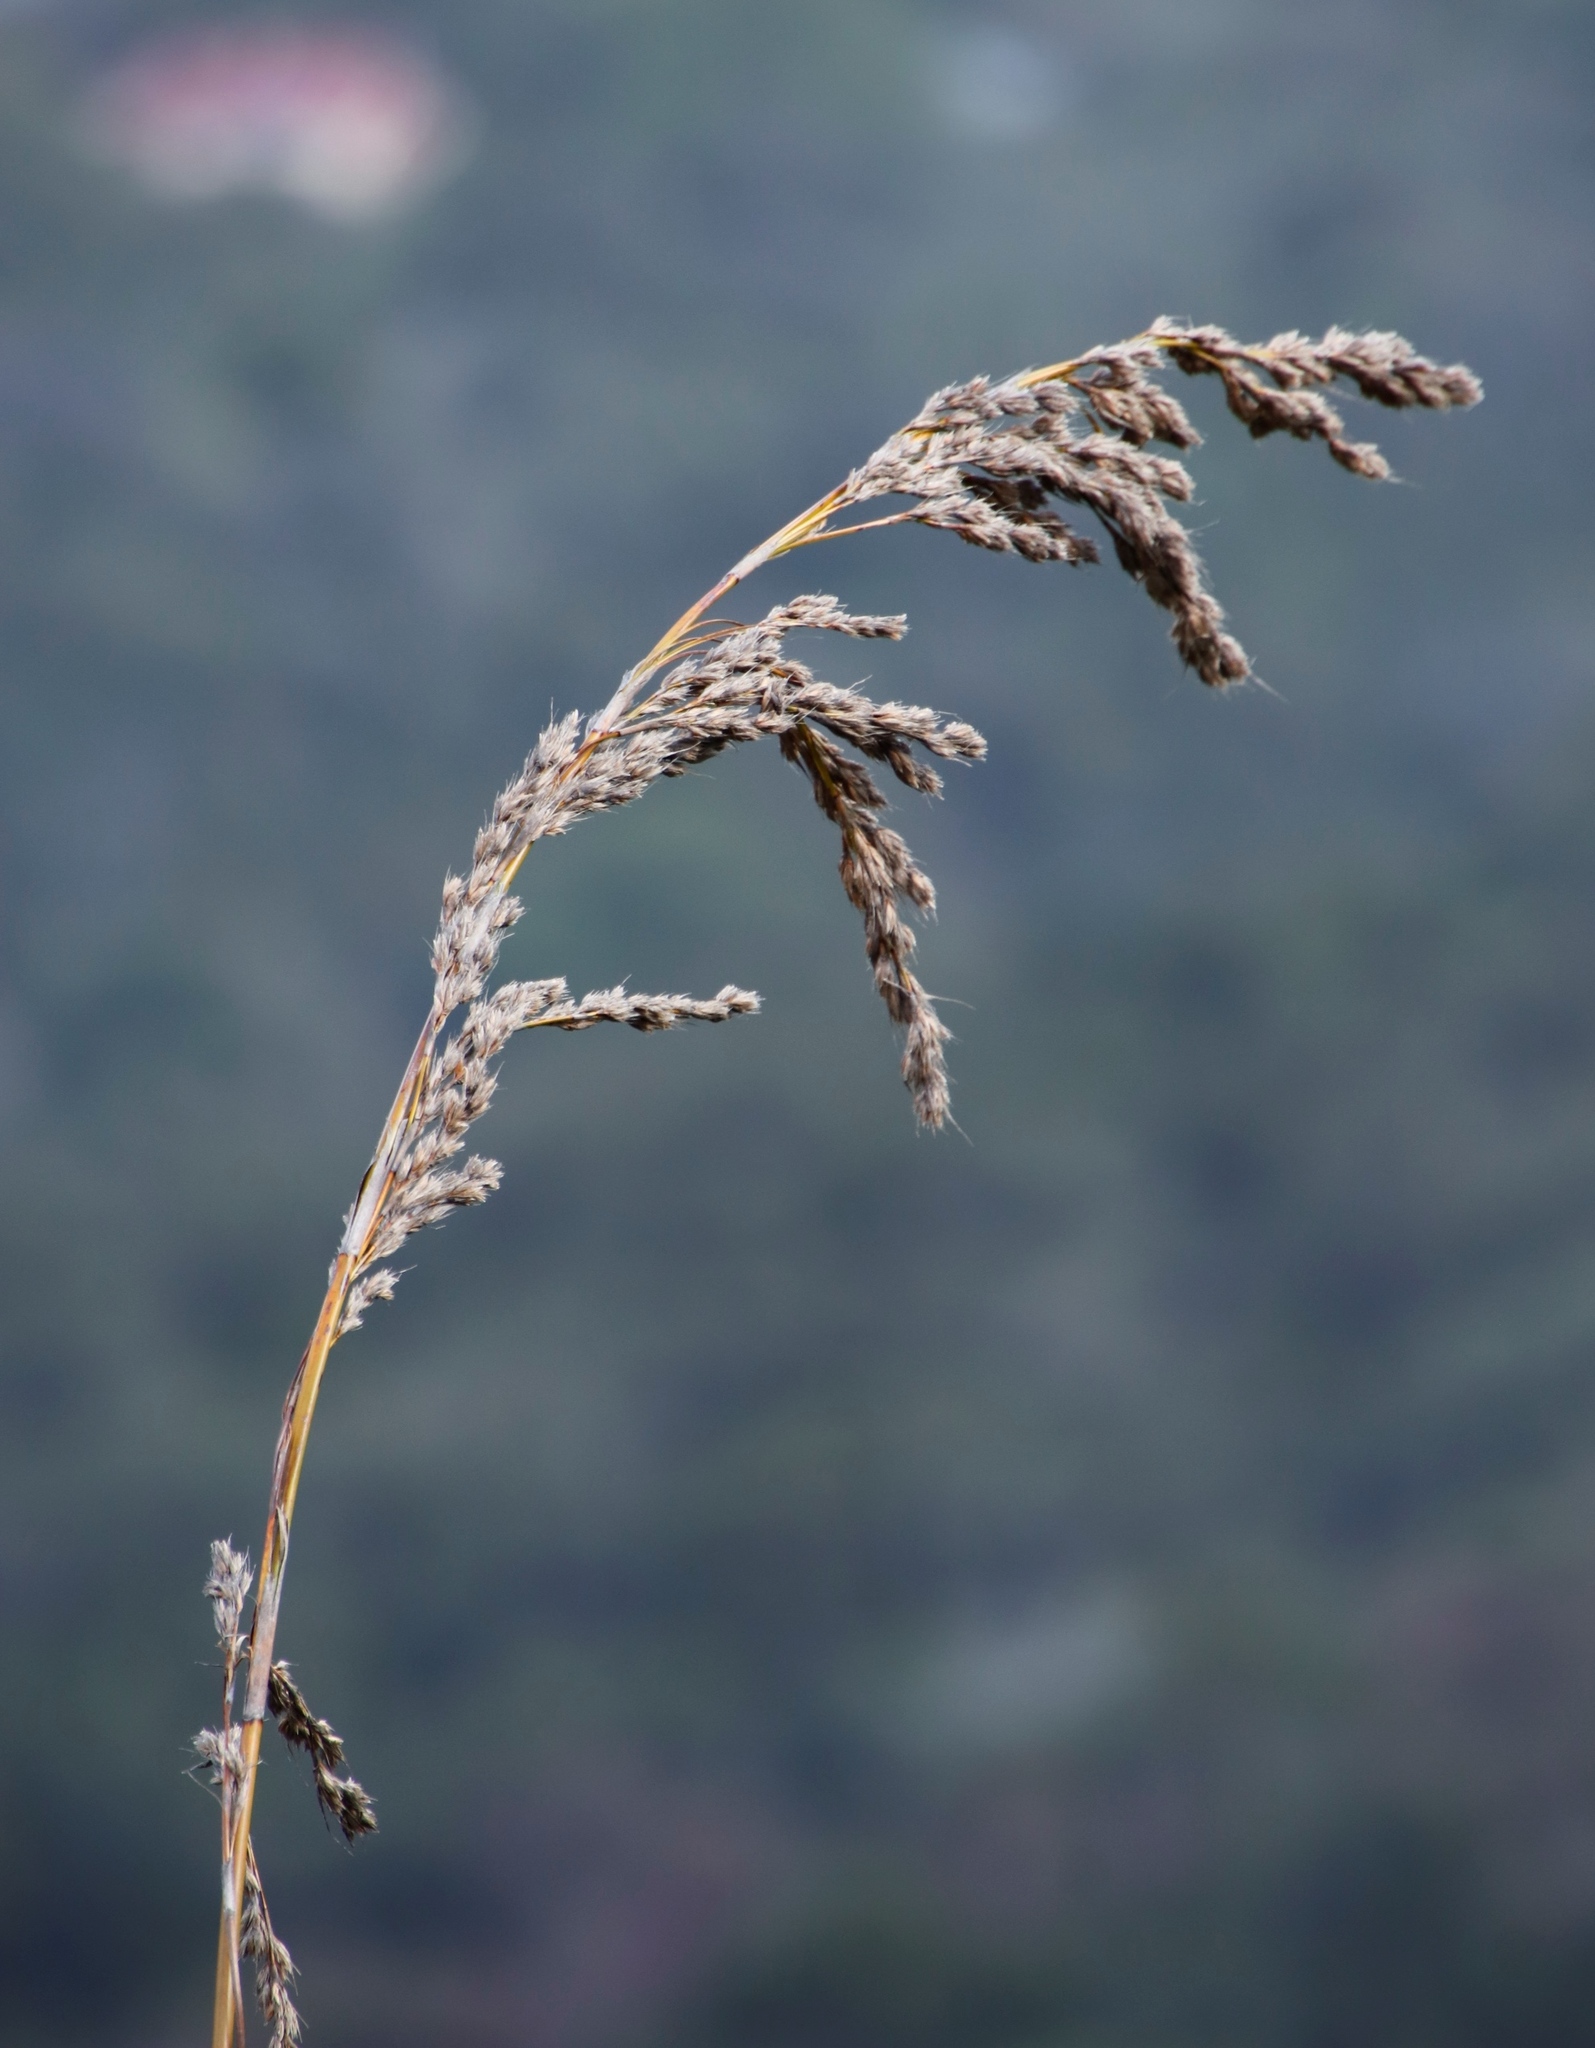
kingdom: Plantae
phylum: Tracheophyta
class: Liliopsida
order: Poales
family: Cyperaceae
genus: Tetraria
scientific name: Tetraria involucrata
